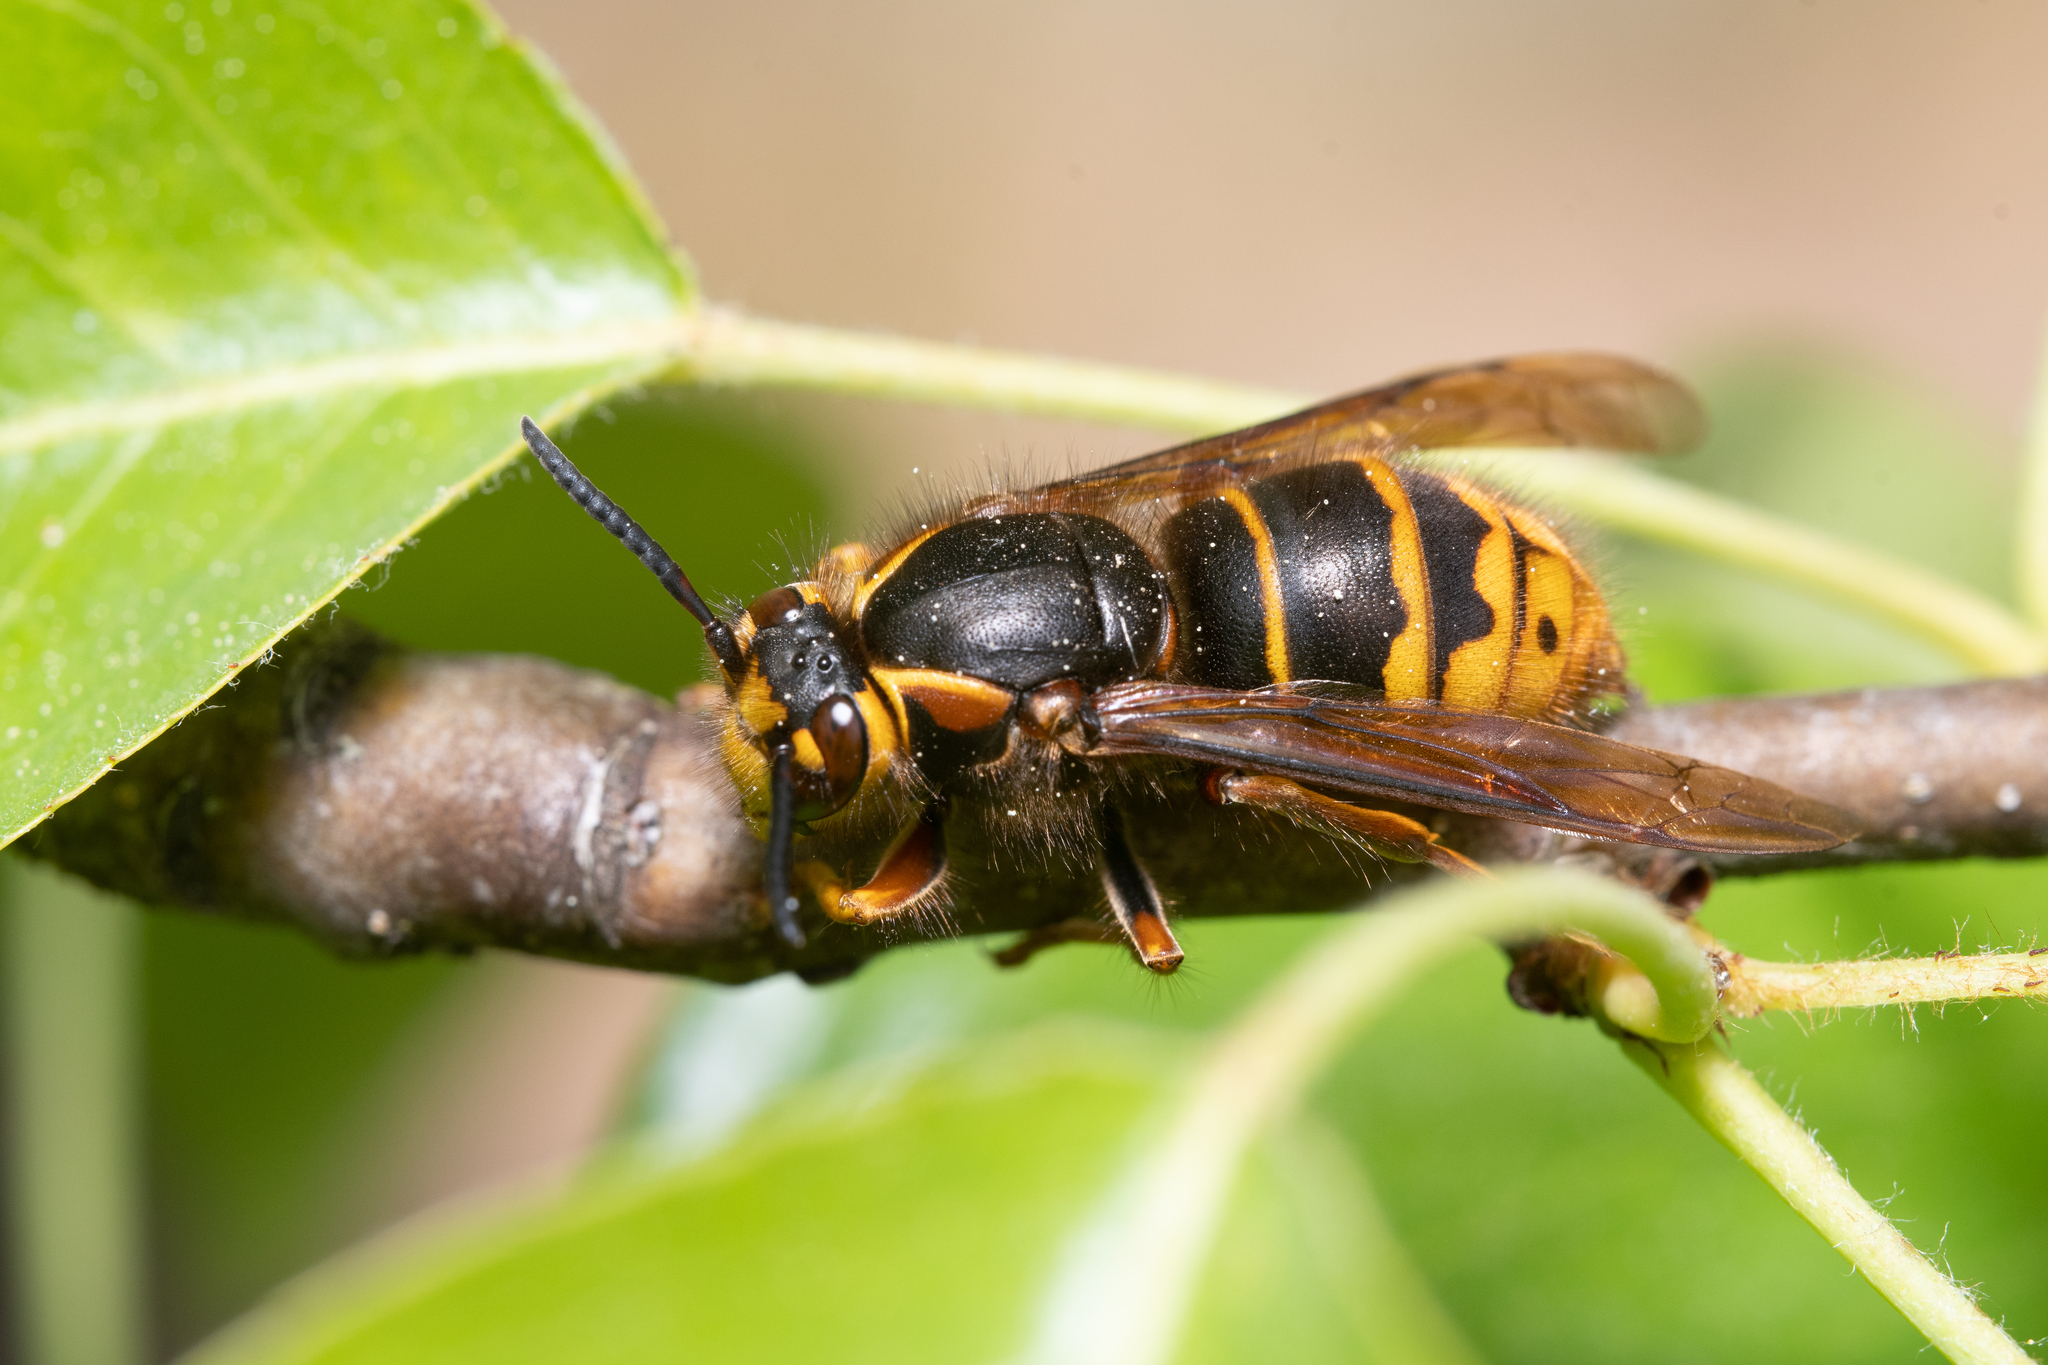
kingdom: Animalia
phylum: Arthropoda
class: Insecta
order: Hymenoptera
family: Vespidae
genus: Dolichovespula
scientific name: Dolichovespula media
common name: Median wasp
